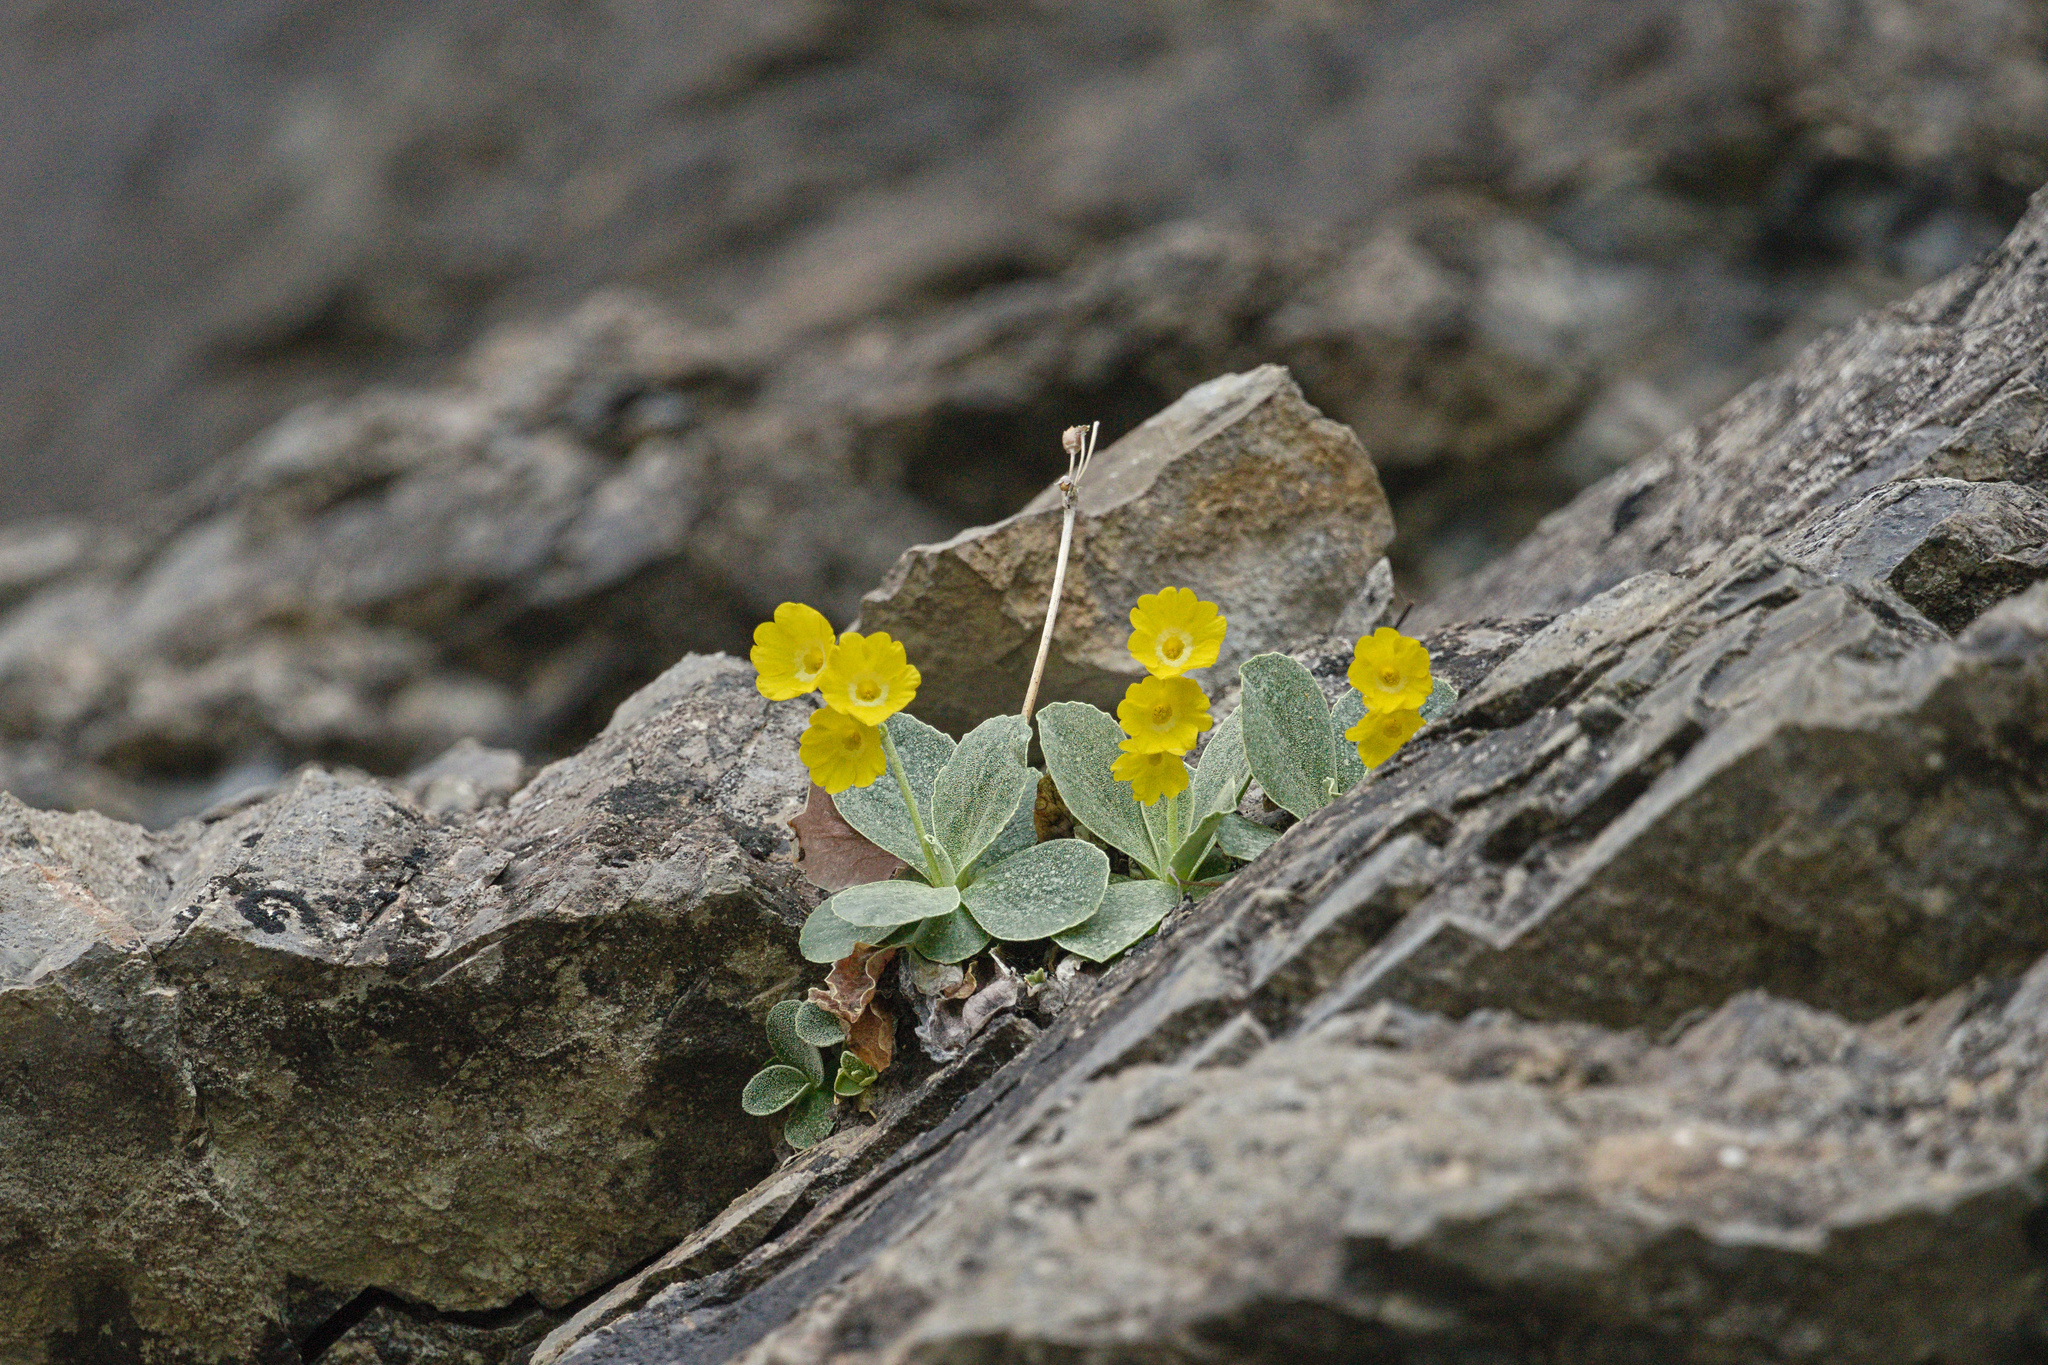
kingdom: Plantae
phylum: Tracheophyta
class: Magnoliopsida
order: Ericales
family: Primulaceae
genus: Primula
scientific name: Primula auricula
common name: Auricula
